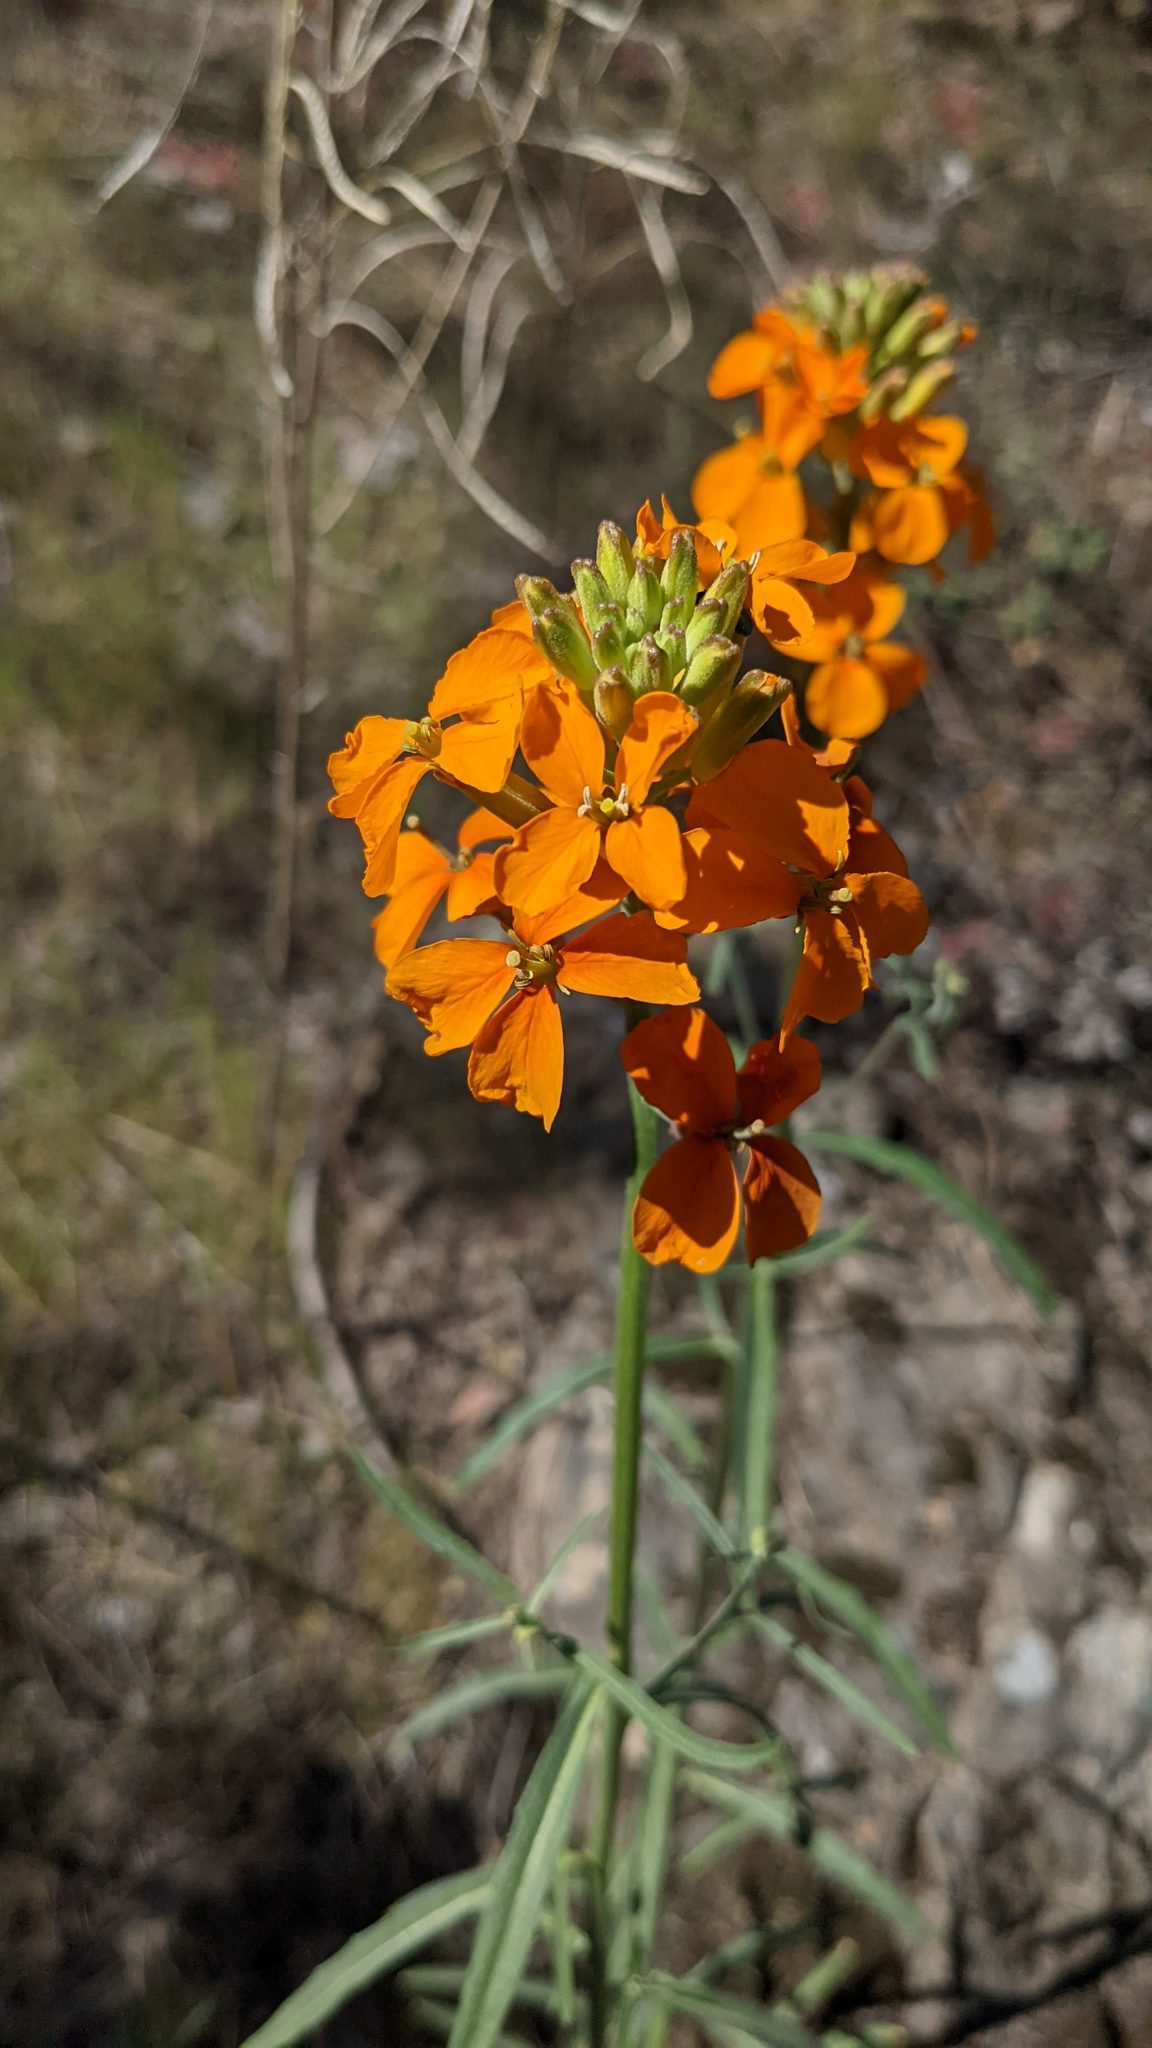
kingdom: Plantae
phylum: Tracheophyta
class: Magnoliopsida
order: Brassicales
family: Brassicaceae
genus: Erysimum
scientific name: Erysimum capitatum
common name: Western wallflower
